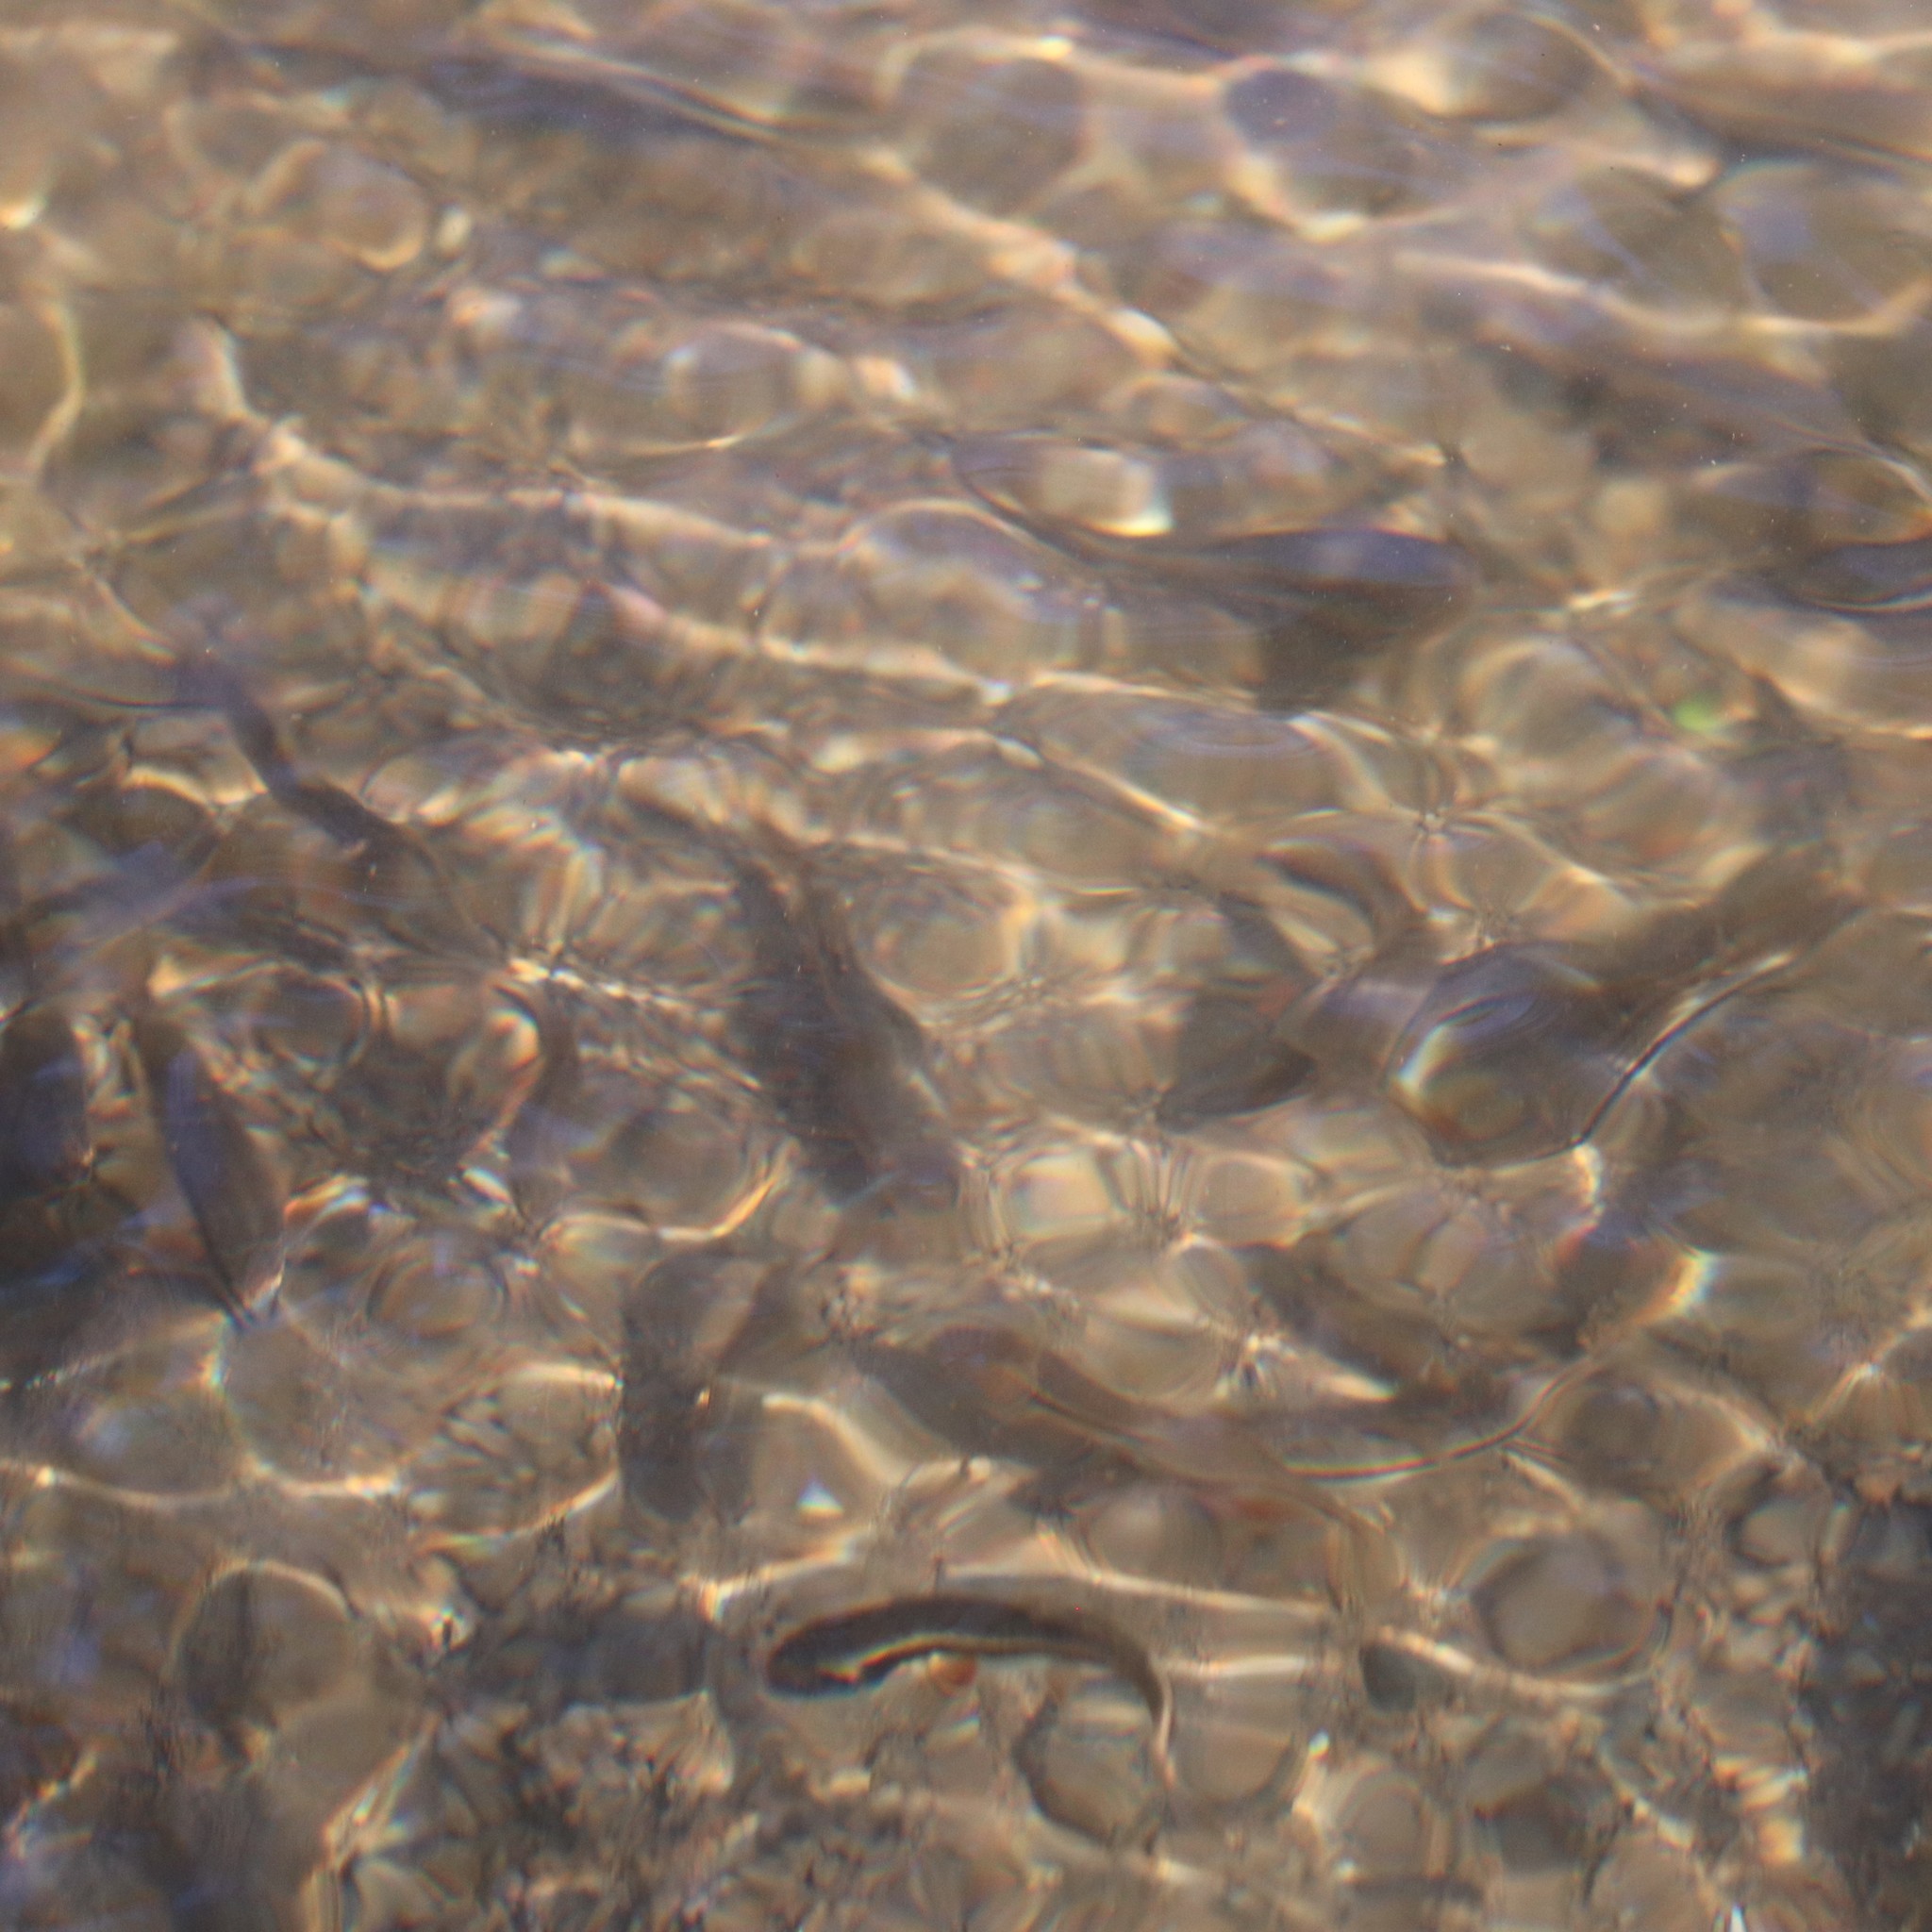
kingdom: Animalia
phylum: Chordata
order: Cypriniformes
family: Cyprinidae
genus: Rhinichthys
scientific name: Rhinichthys atratulus
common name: Eastern blacknose dace
